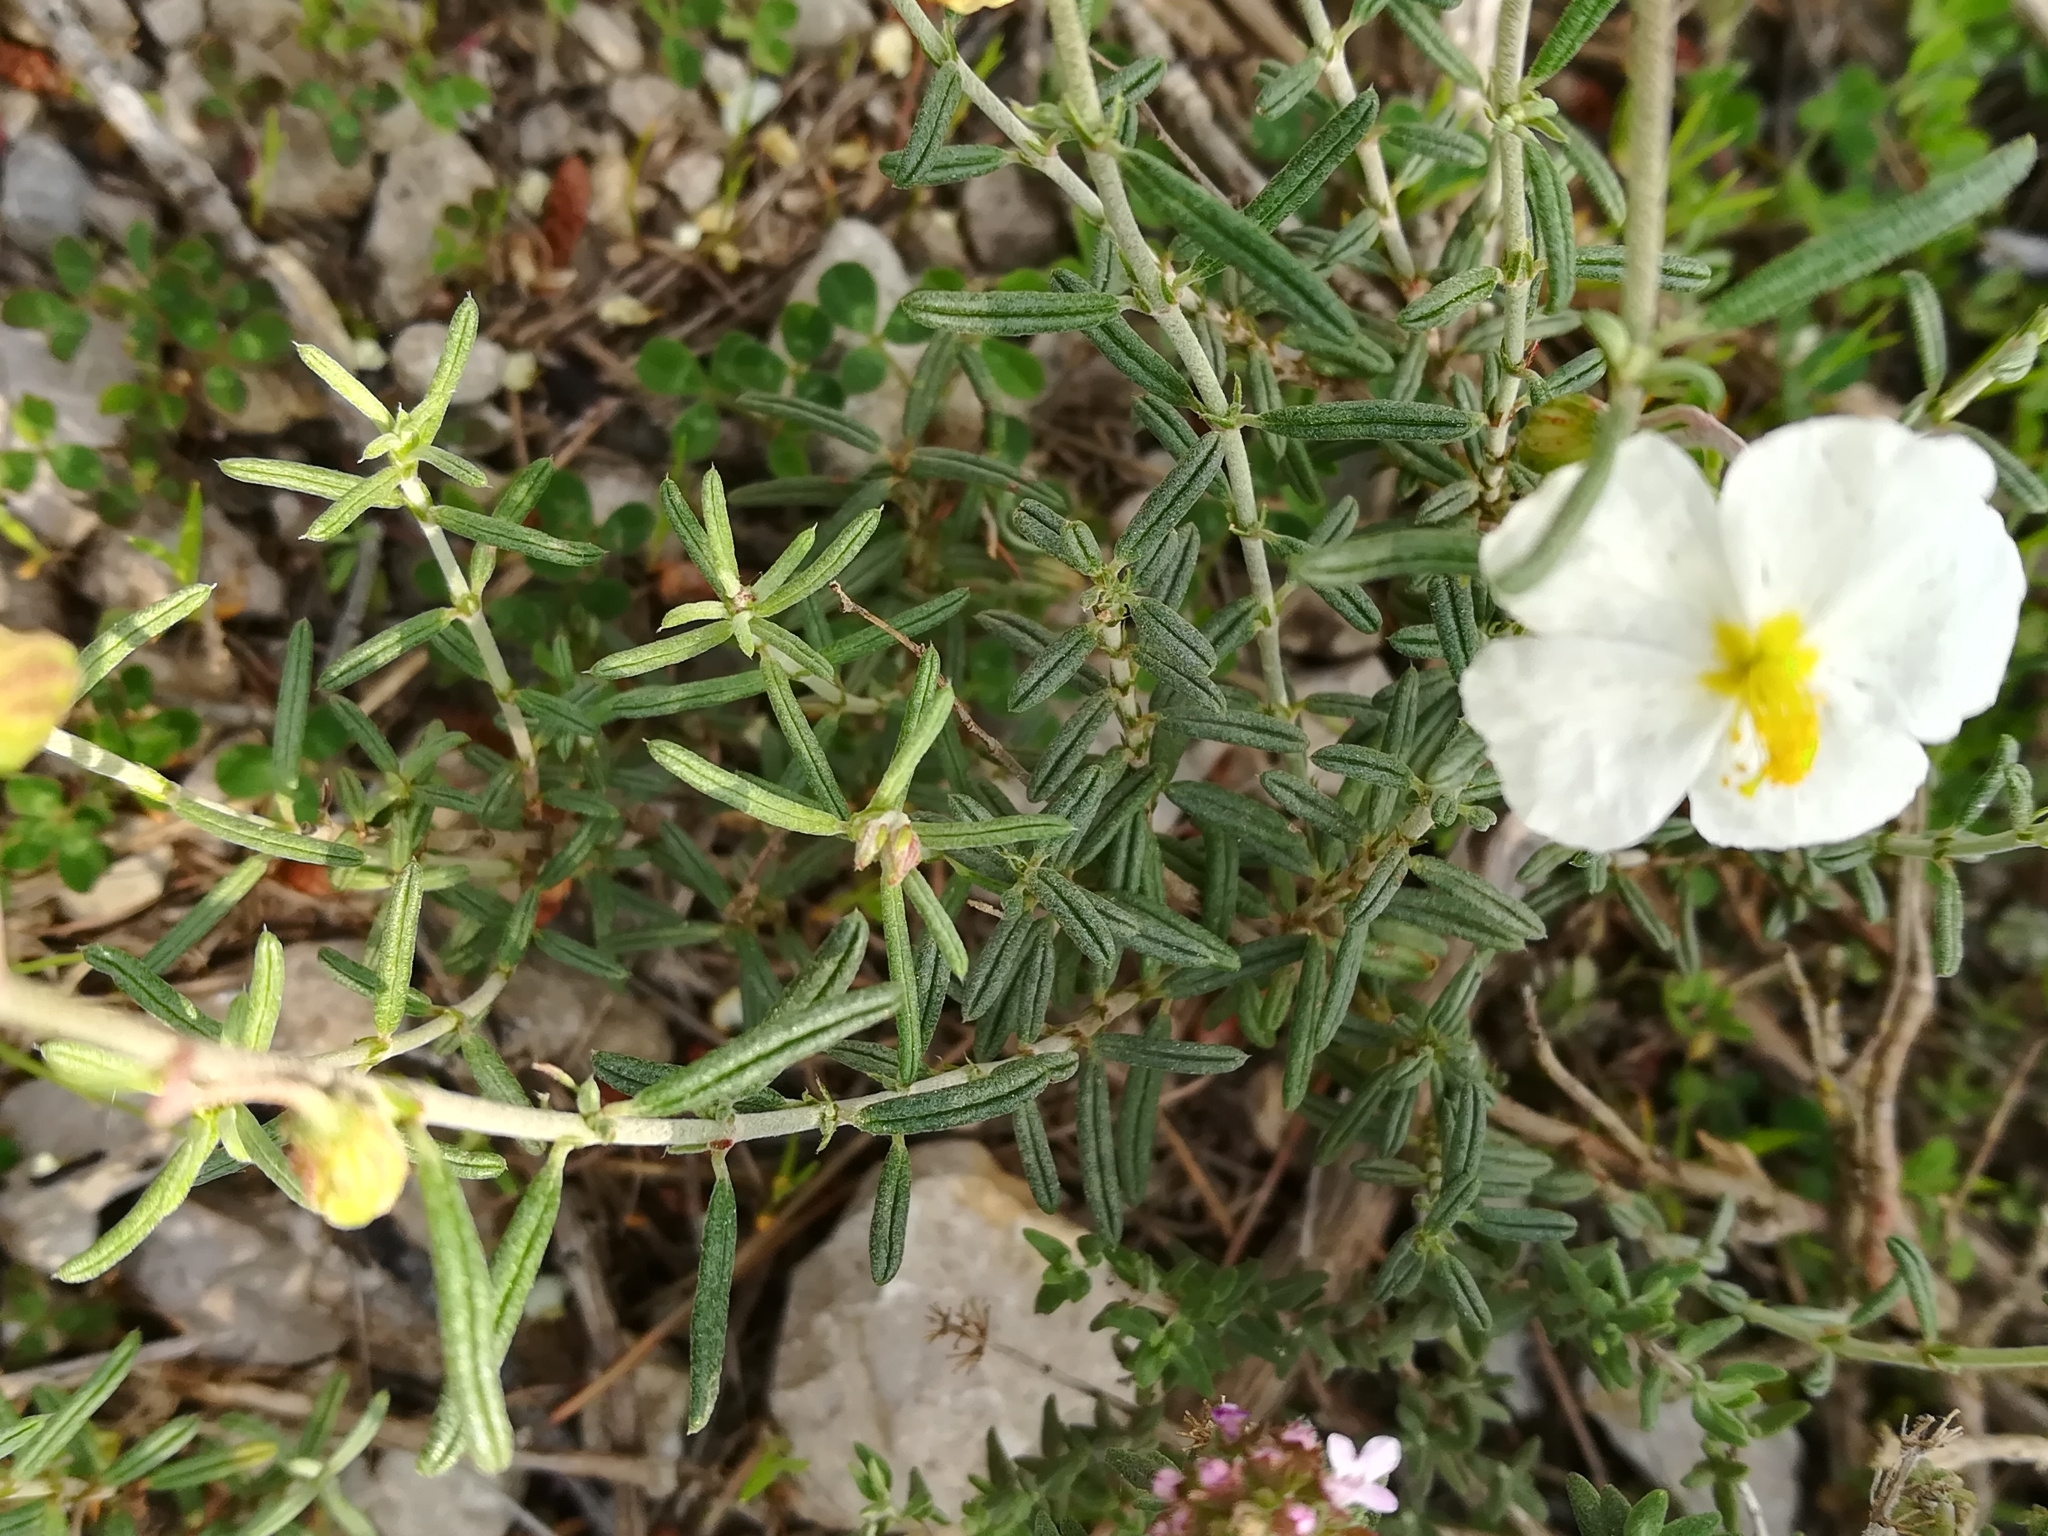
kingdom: Plantae
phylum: Tracheophyta
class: Magnoliopsida
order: Malvales
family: Cistaceae
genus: Helianthemum
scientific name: Helianthemum apenninum
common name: White rock-rose
